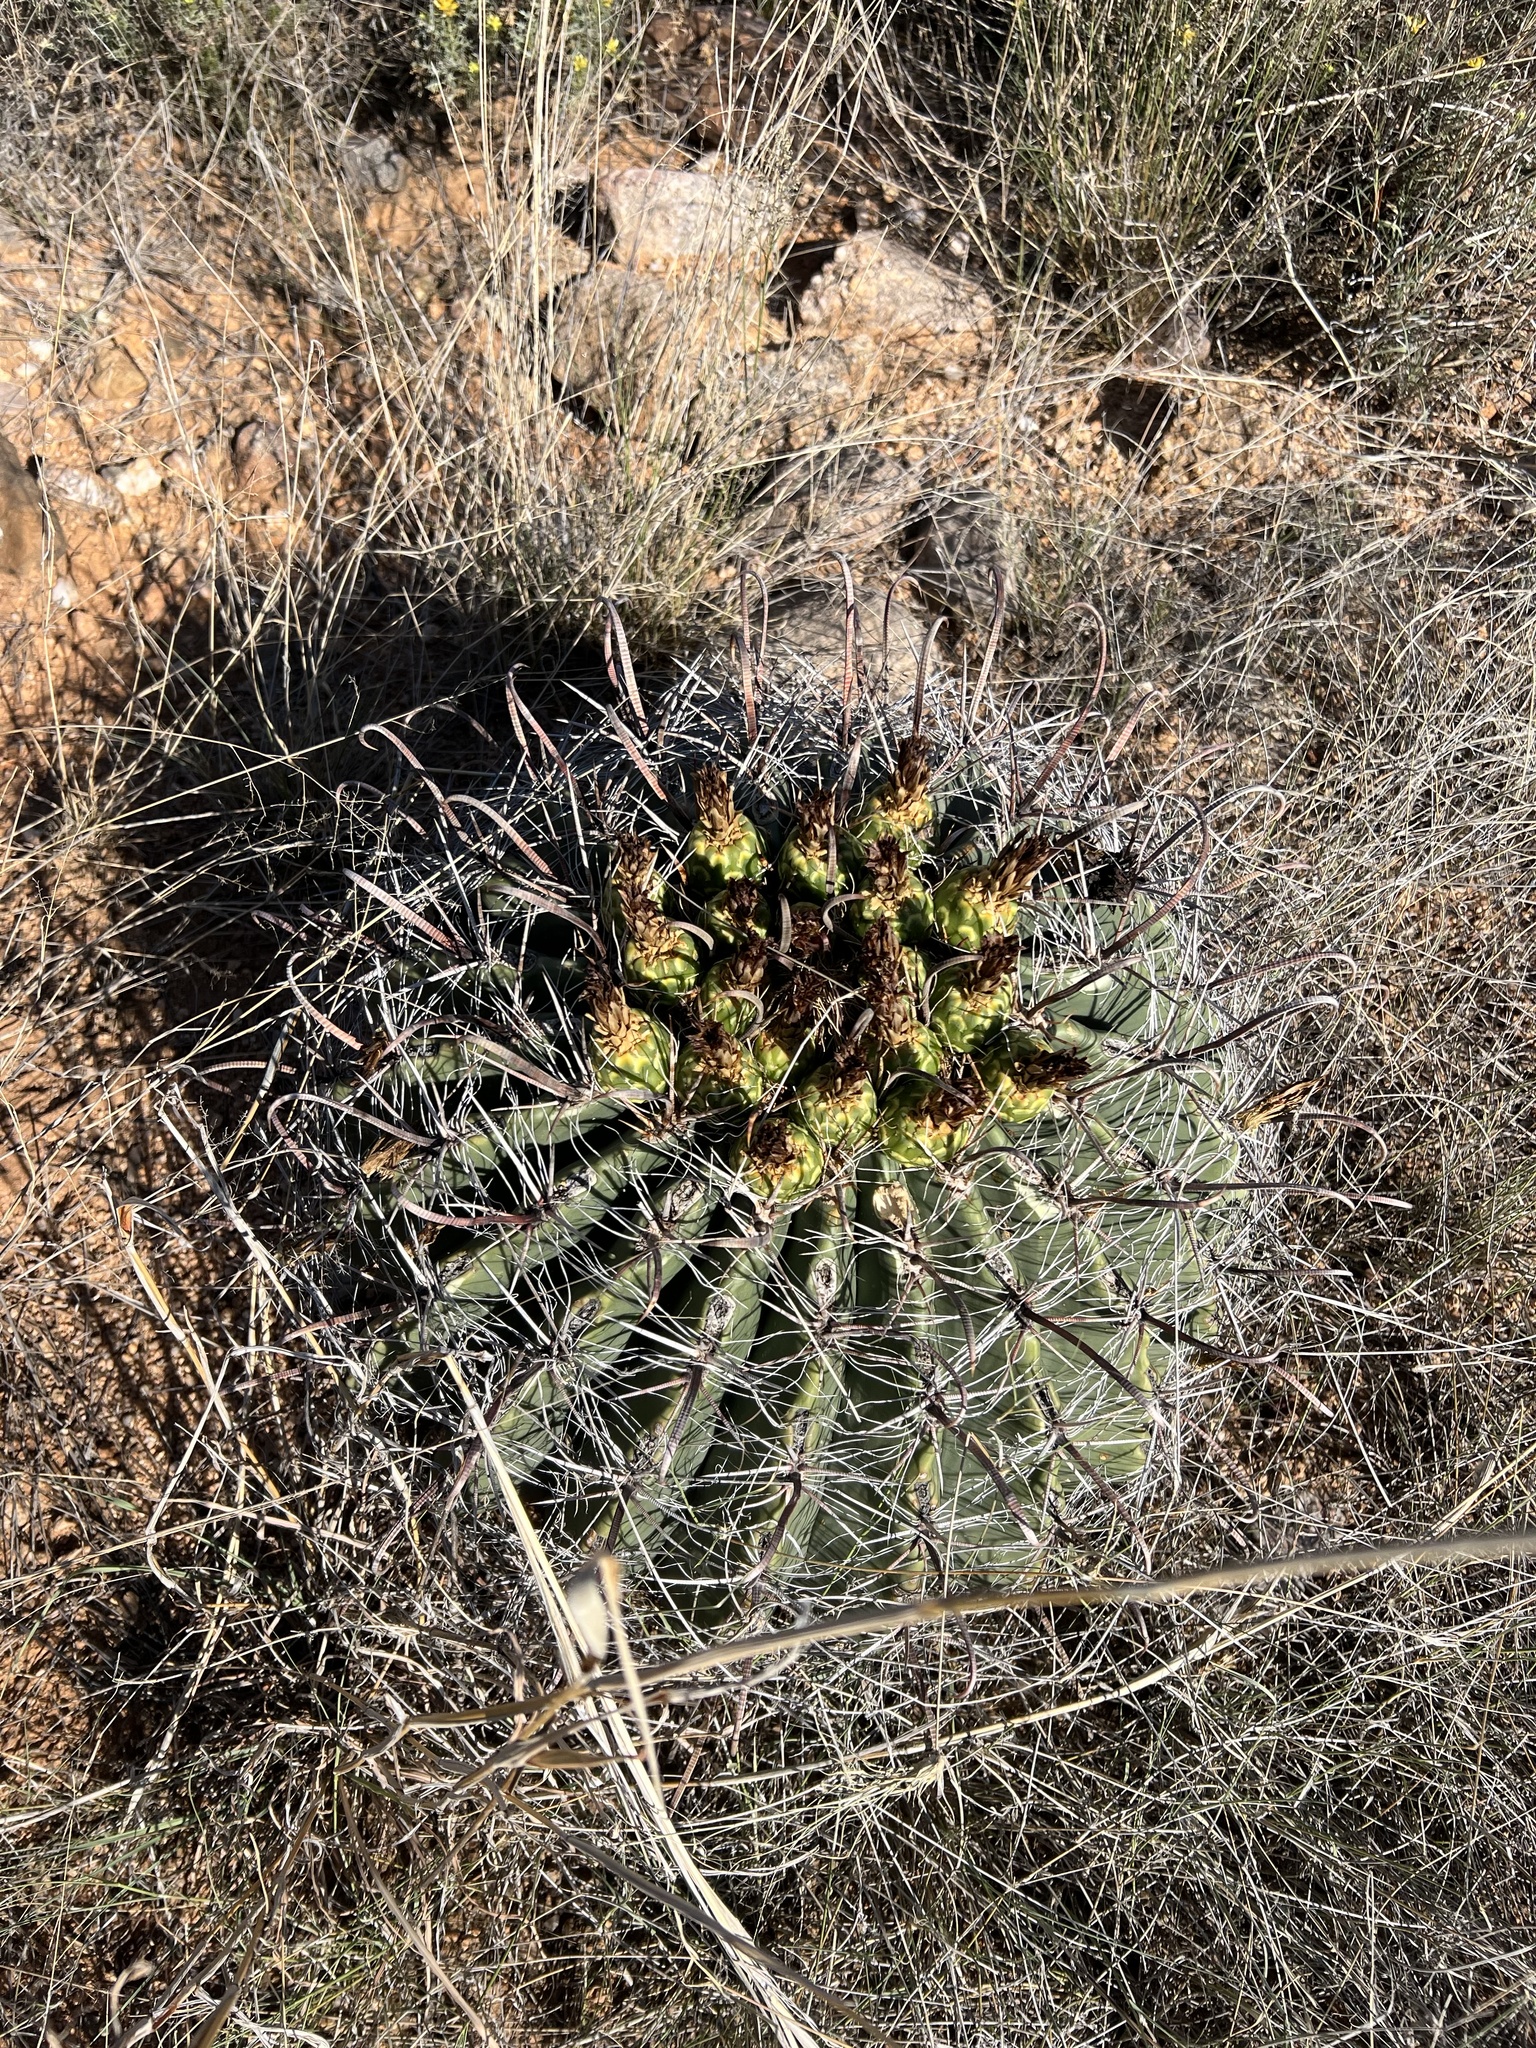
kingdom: Plantae
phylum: Tracheophyta
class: Magnoliopsida
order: Caryophyllales
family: Cactaceae
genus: Ferocactus
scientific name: Ferocactus wislizeni
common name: Candy barrel cactus
